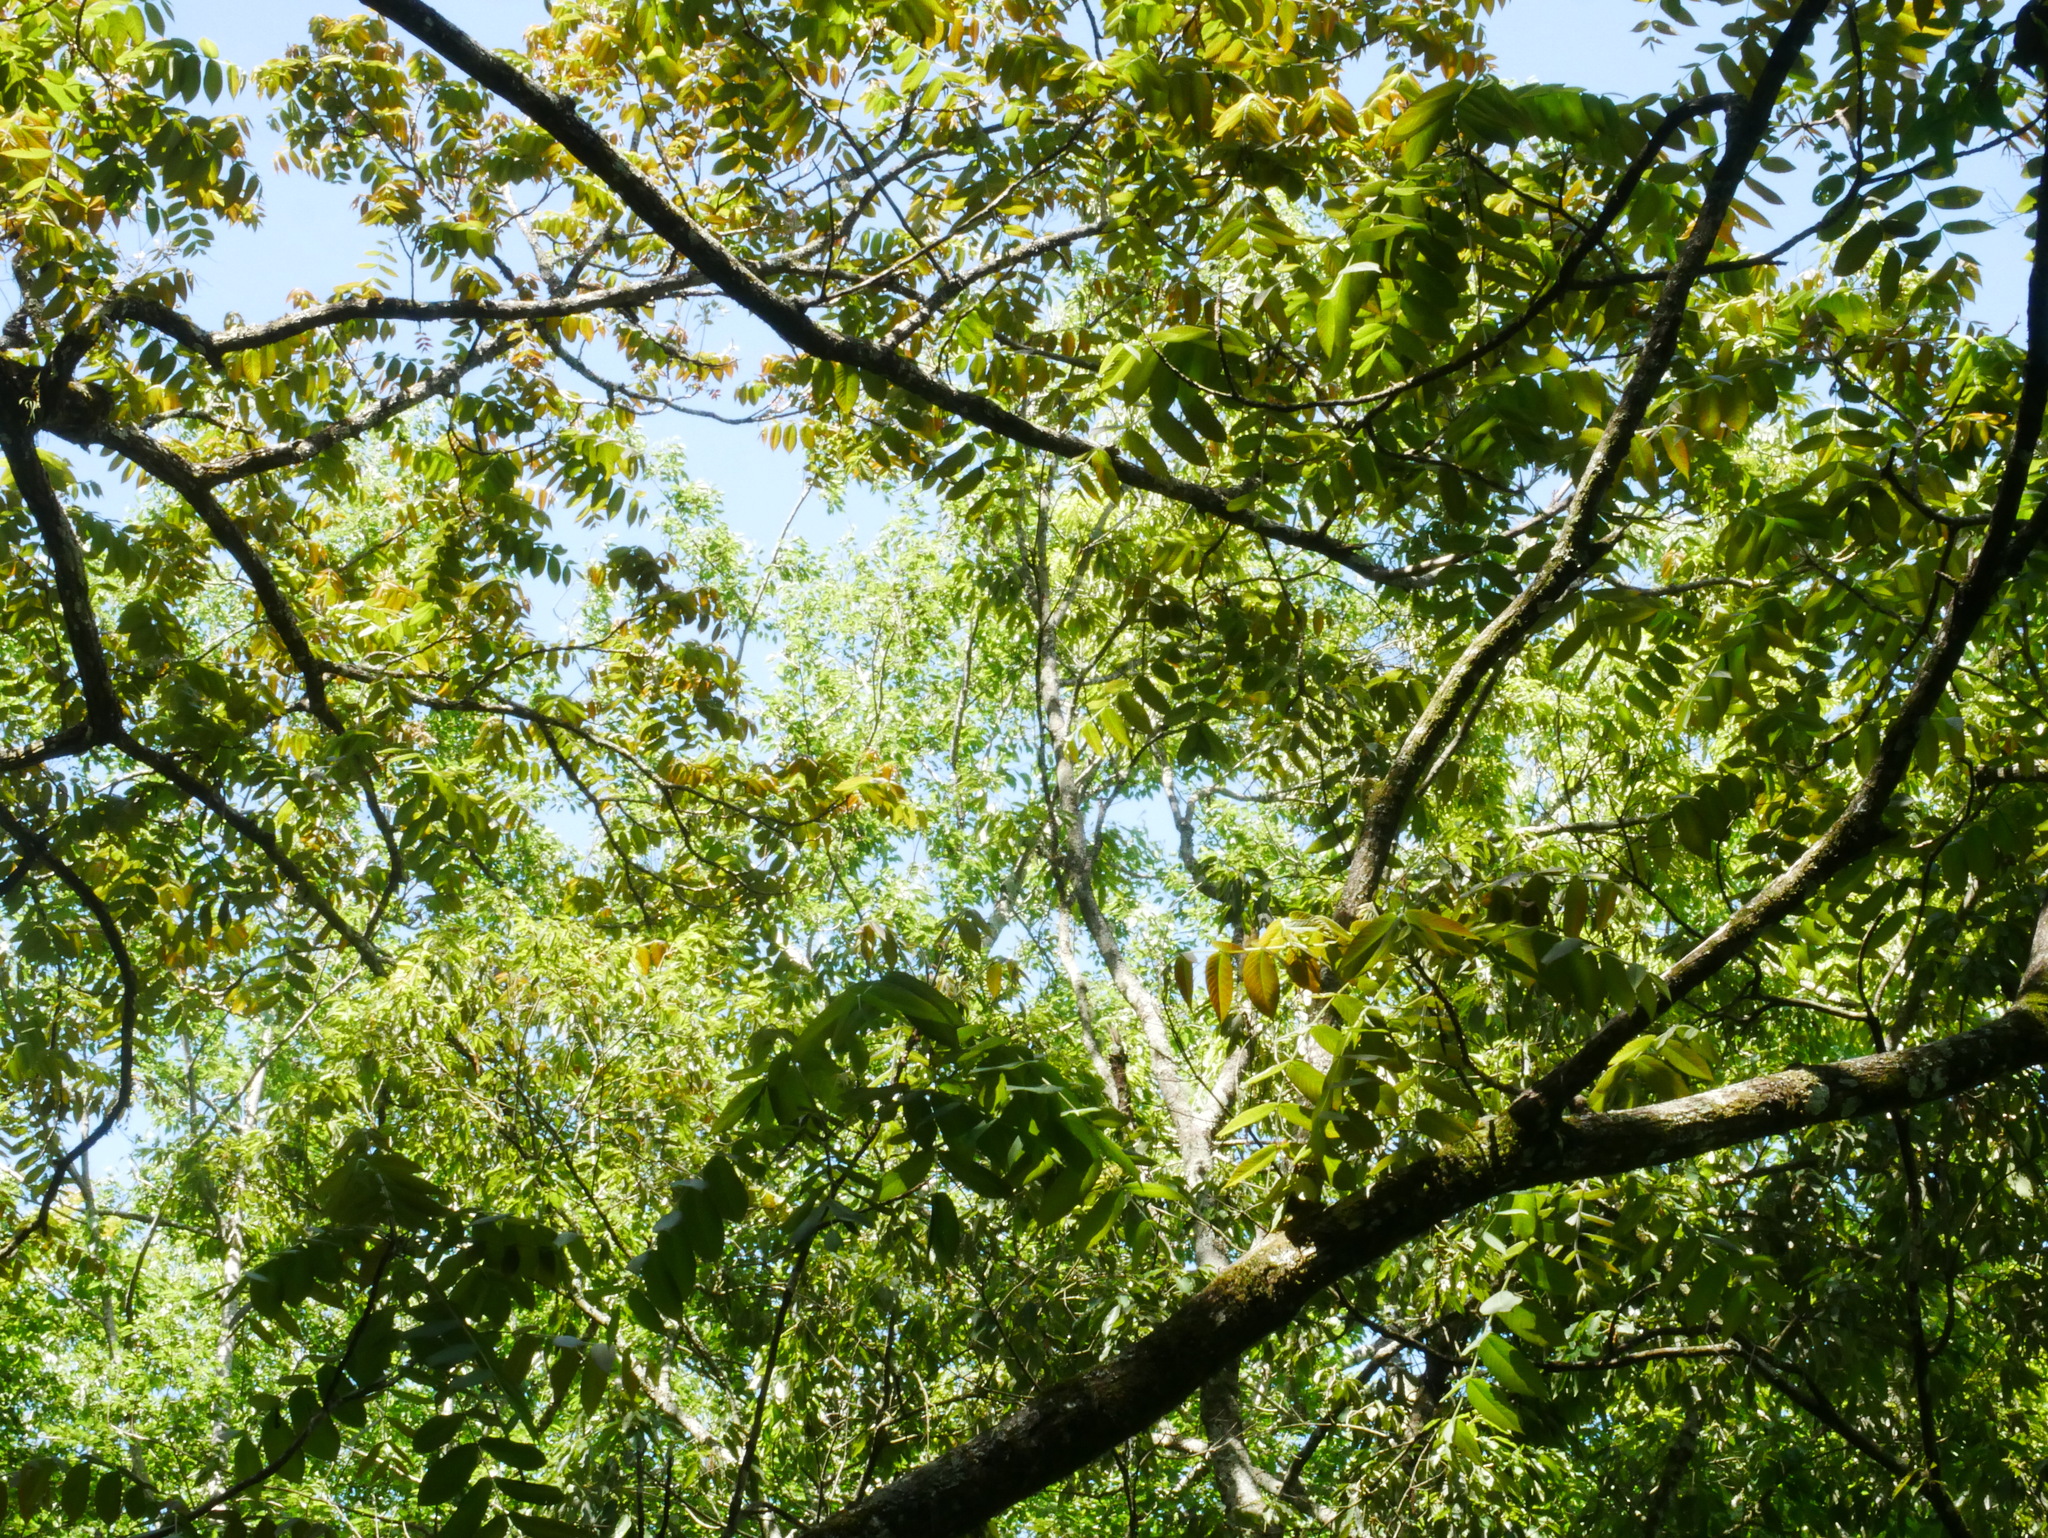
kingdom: Plantae
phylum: Tracheophyta
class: Magnoliopsida
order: Fagales
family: Juglandaceae
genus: Juglans
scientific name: Juglans mandshurica
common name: Manchurian walnut
